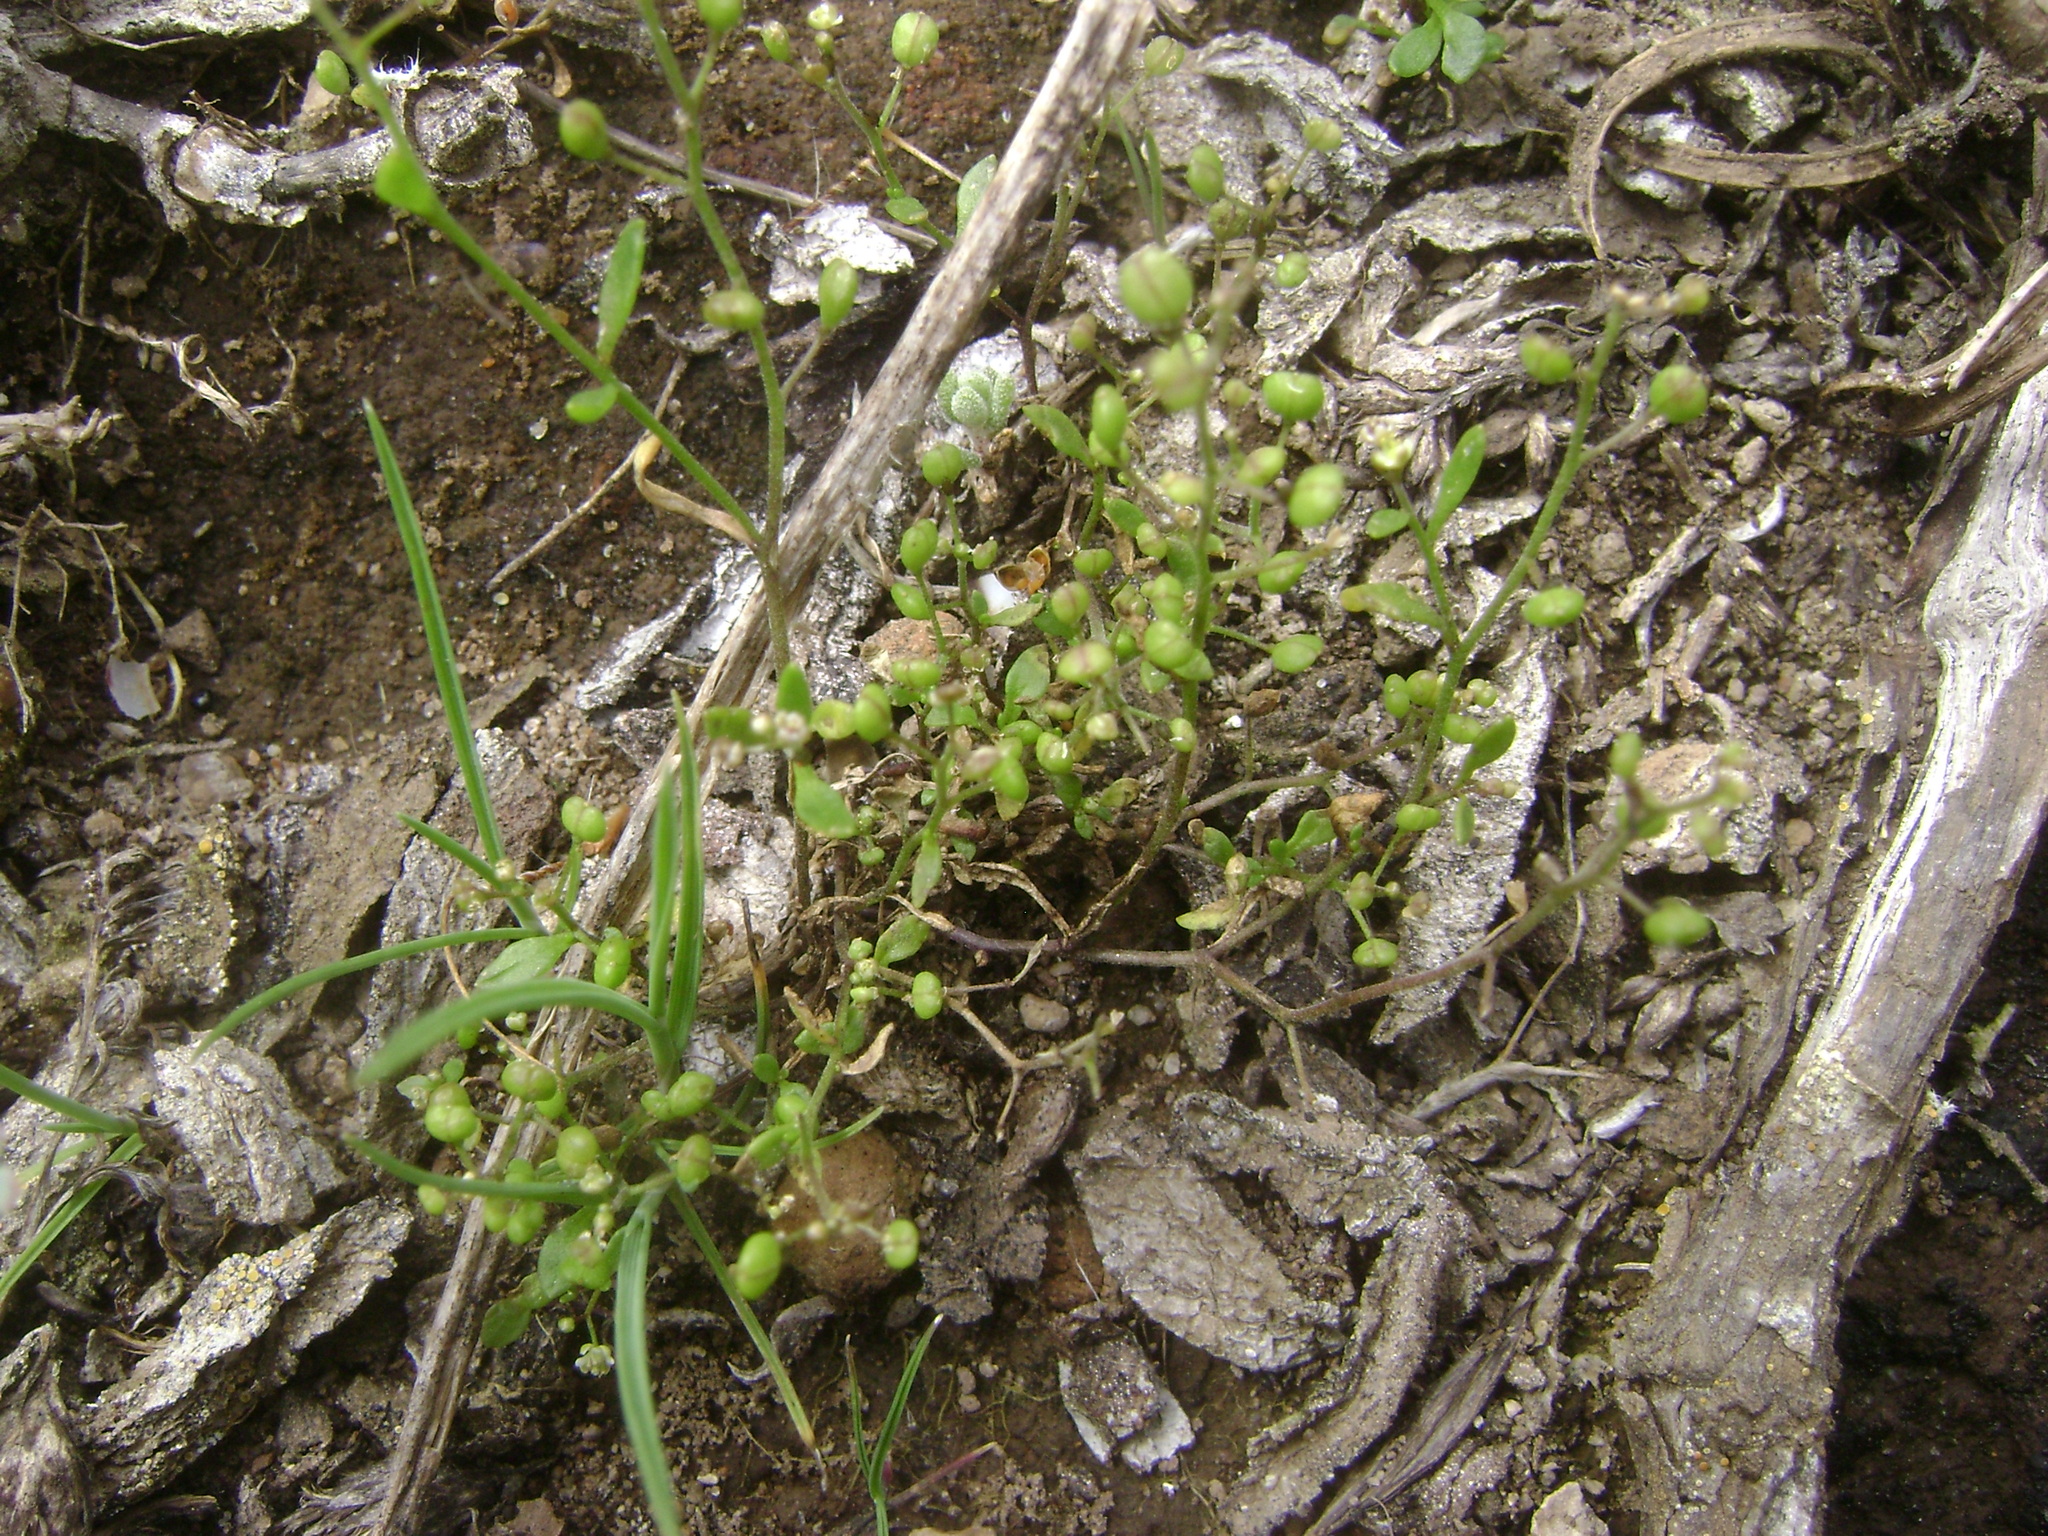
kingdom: Plantae
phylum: Tracheophyta
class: Magnoliopsida
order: Brassicales
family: Brassicaceae
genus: Hornungia
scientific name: Hornungia procumbens
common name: Oval purse
